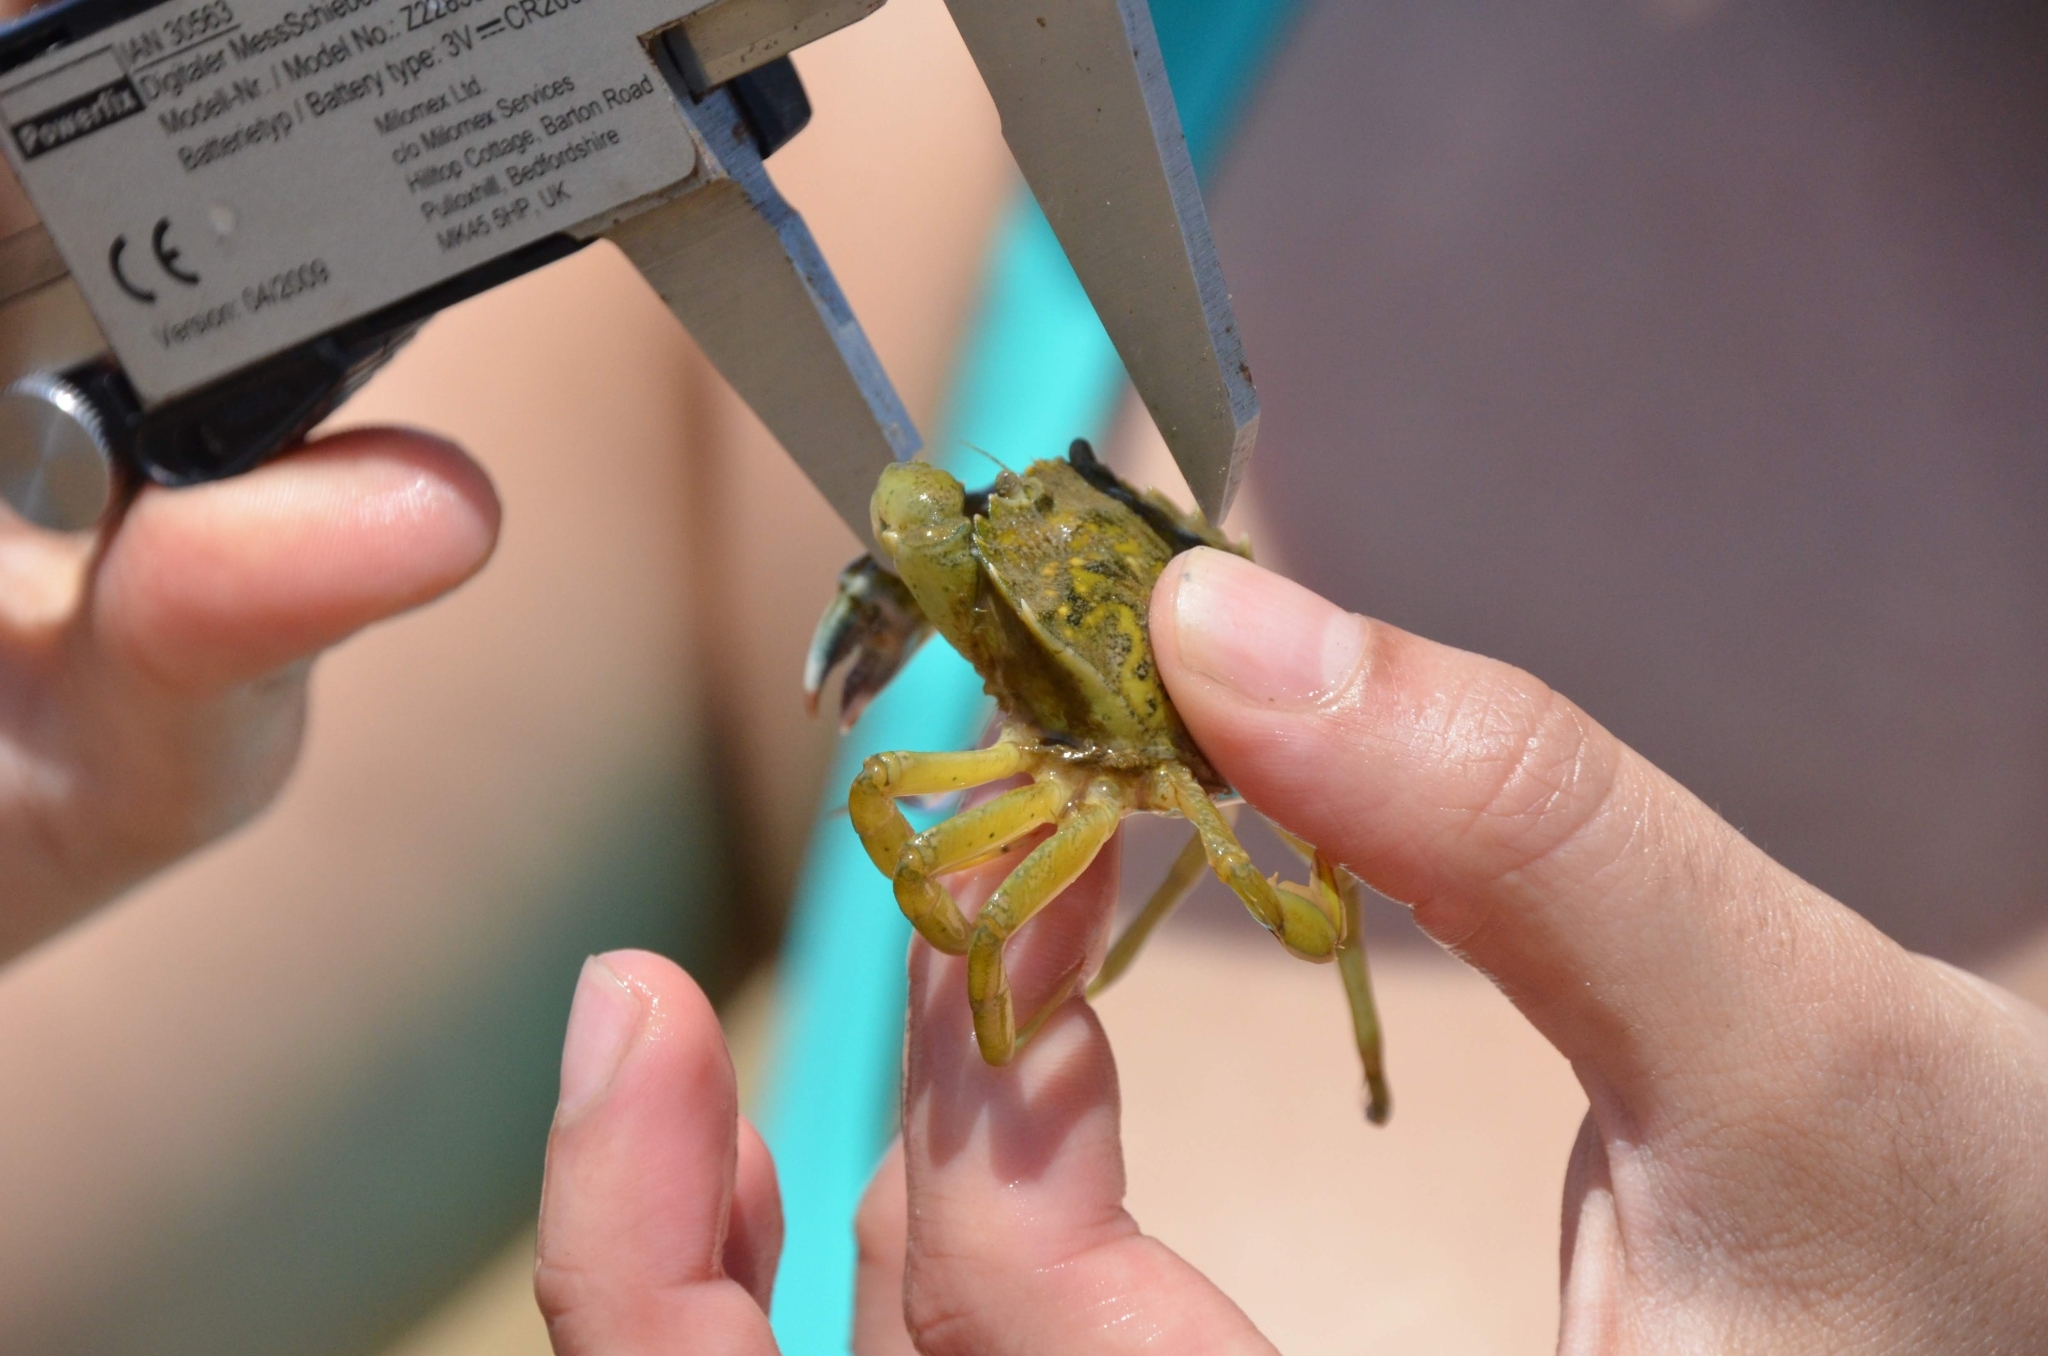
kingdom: Animalia
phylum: Arthropoda
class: Malacostraca
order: Decapoda
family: Carcinidae
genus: Carcinus
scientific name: Carcinus maenas
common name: European green crab
